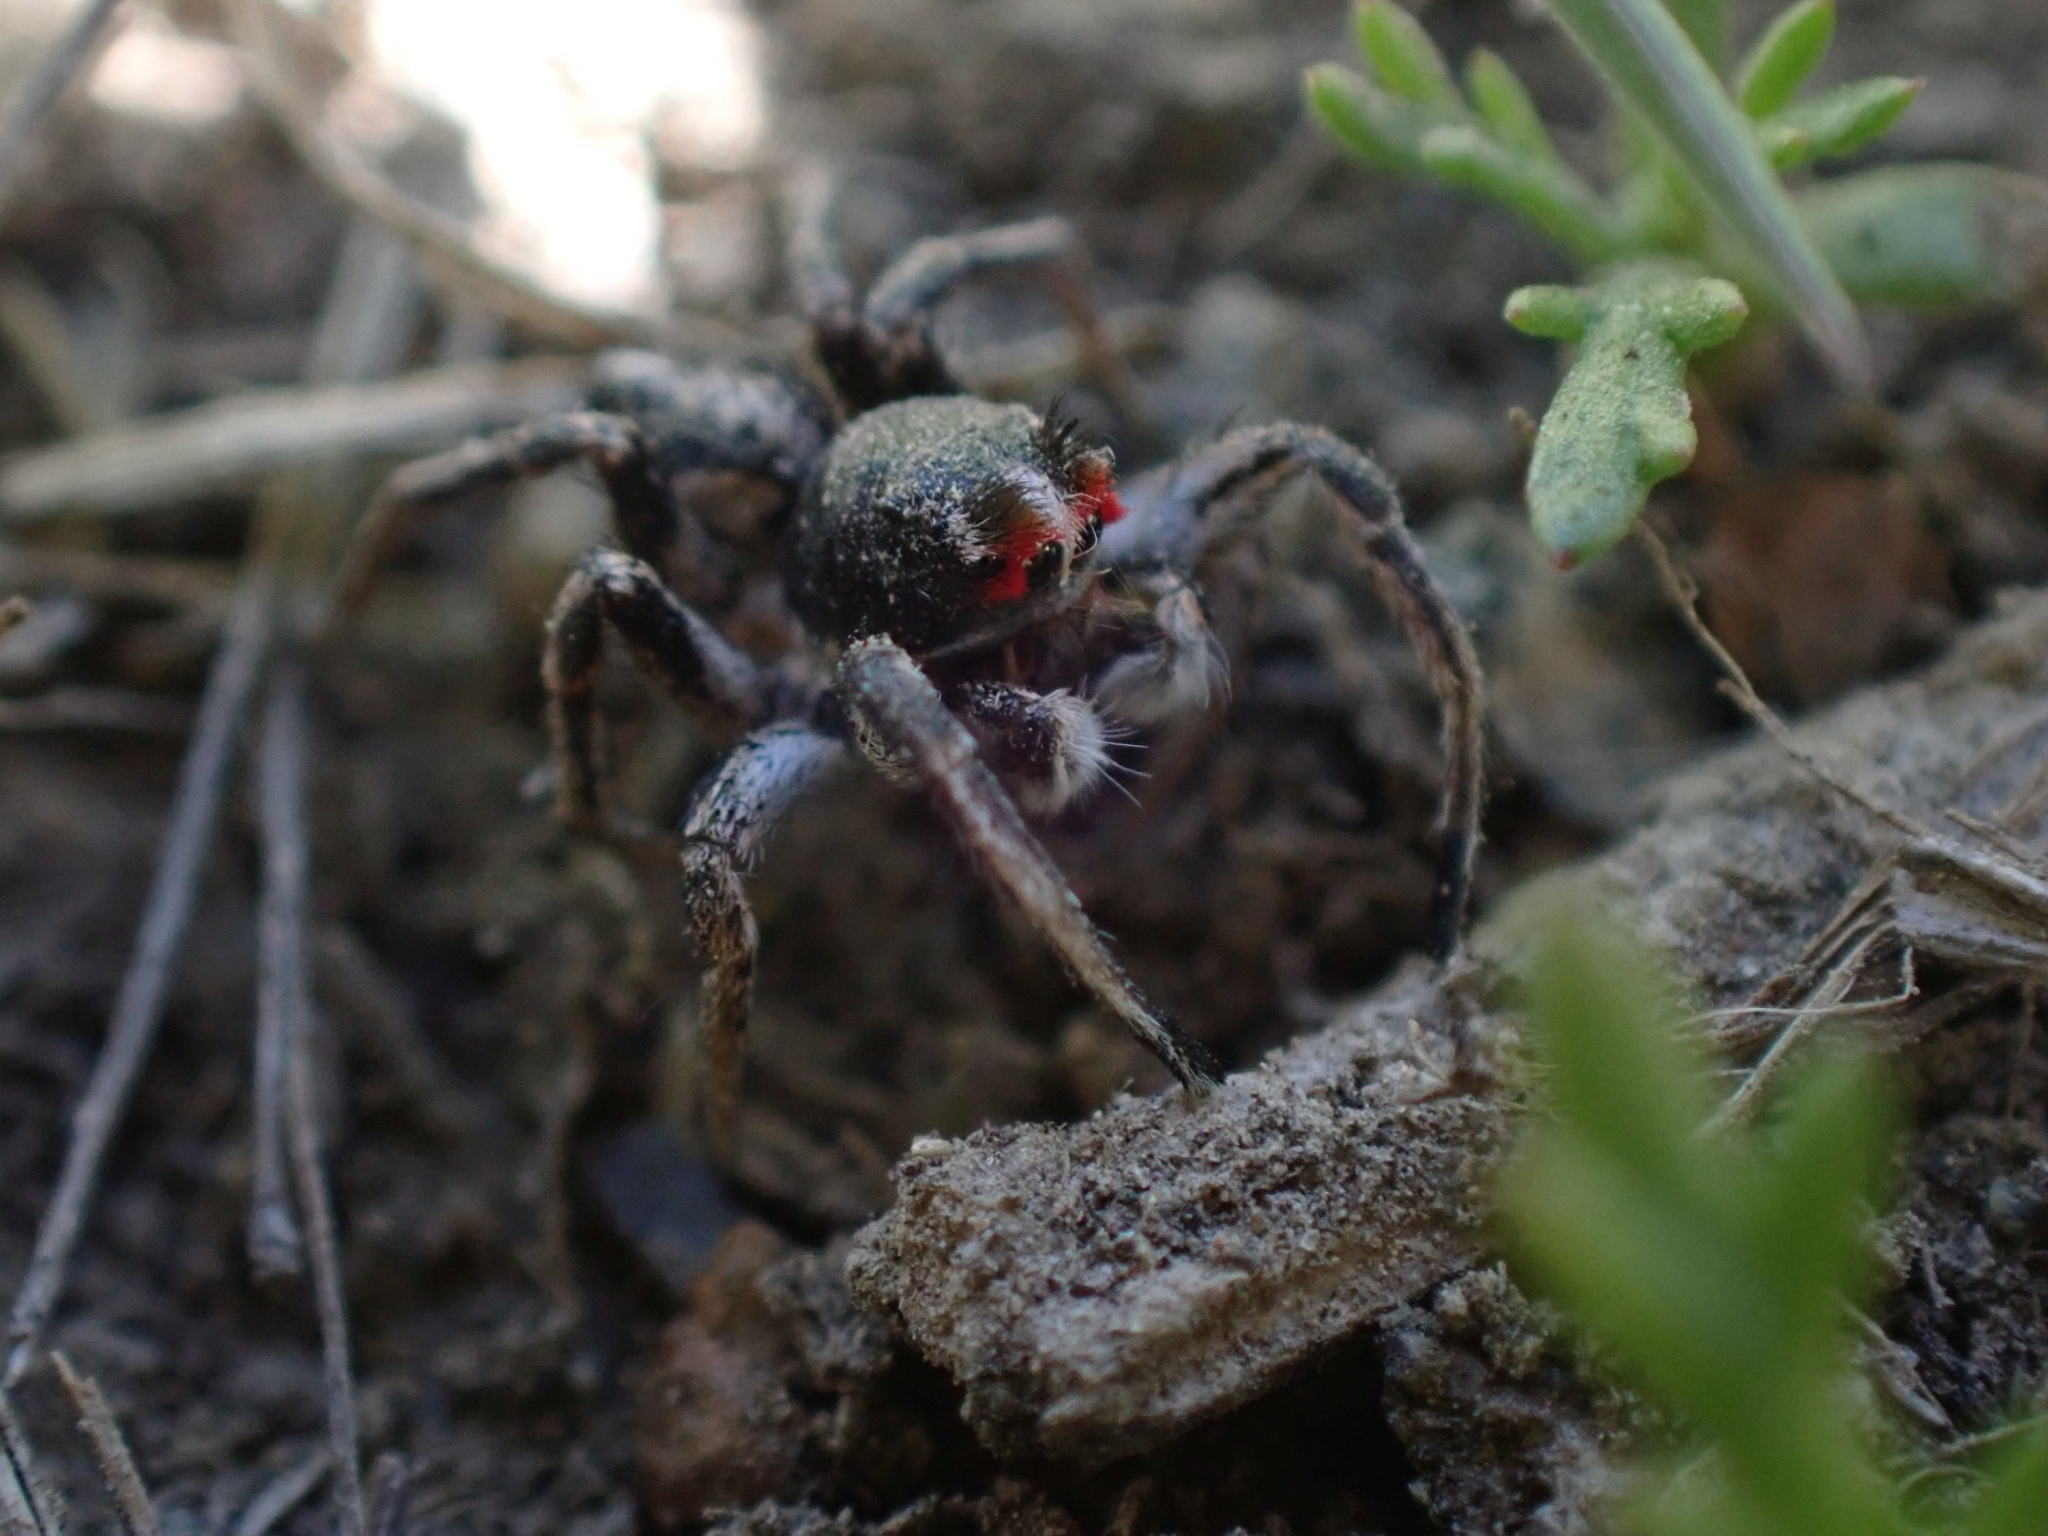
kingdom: Animalia
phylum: Arthropoda
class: Arachnida
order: Araneae
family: Salticidae
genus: Habronattus
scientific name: Habronattus sansoni
